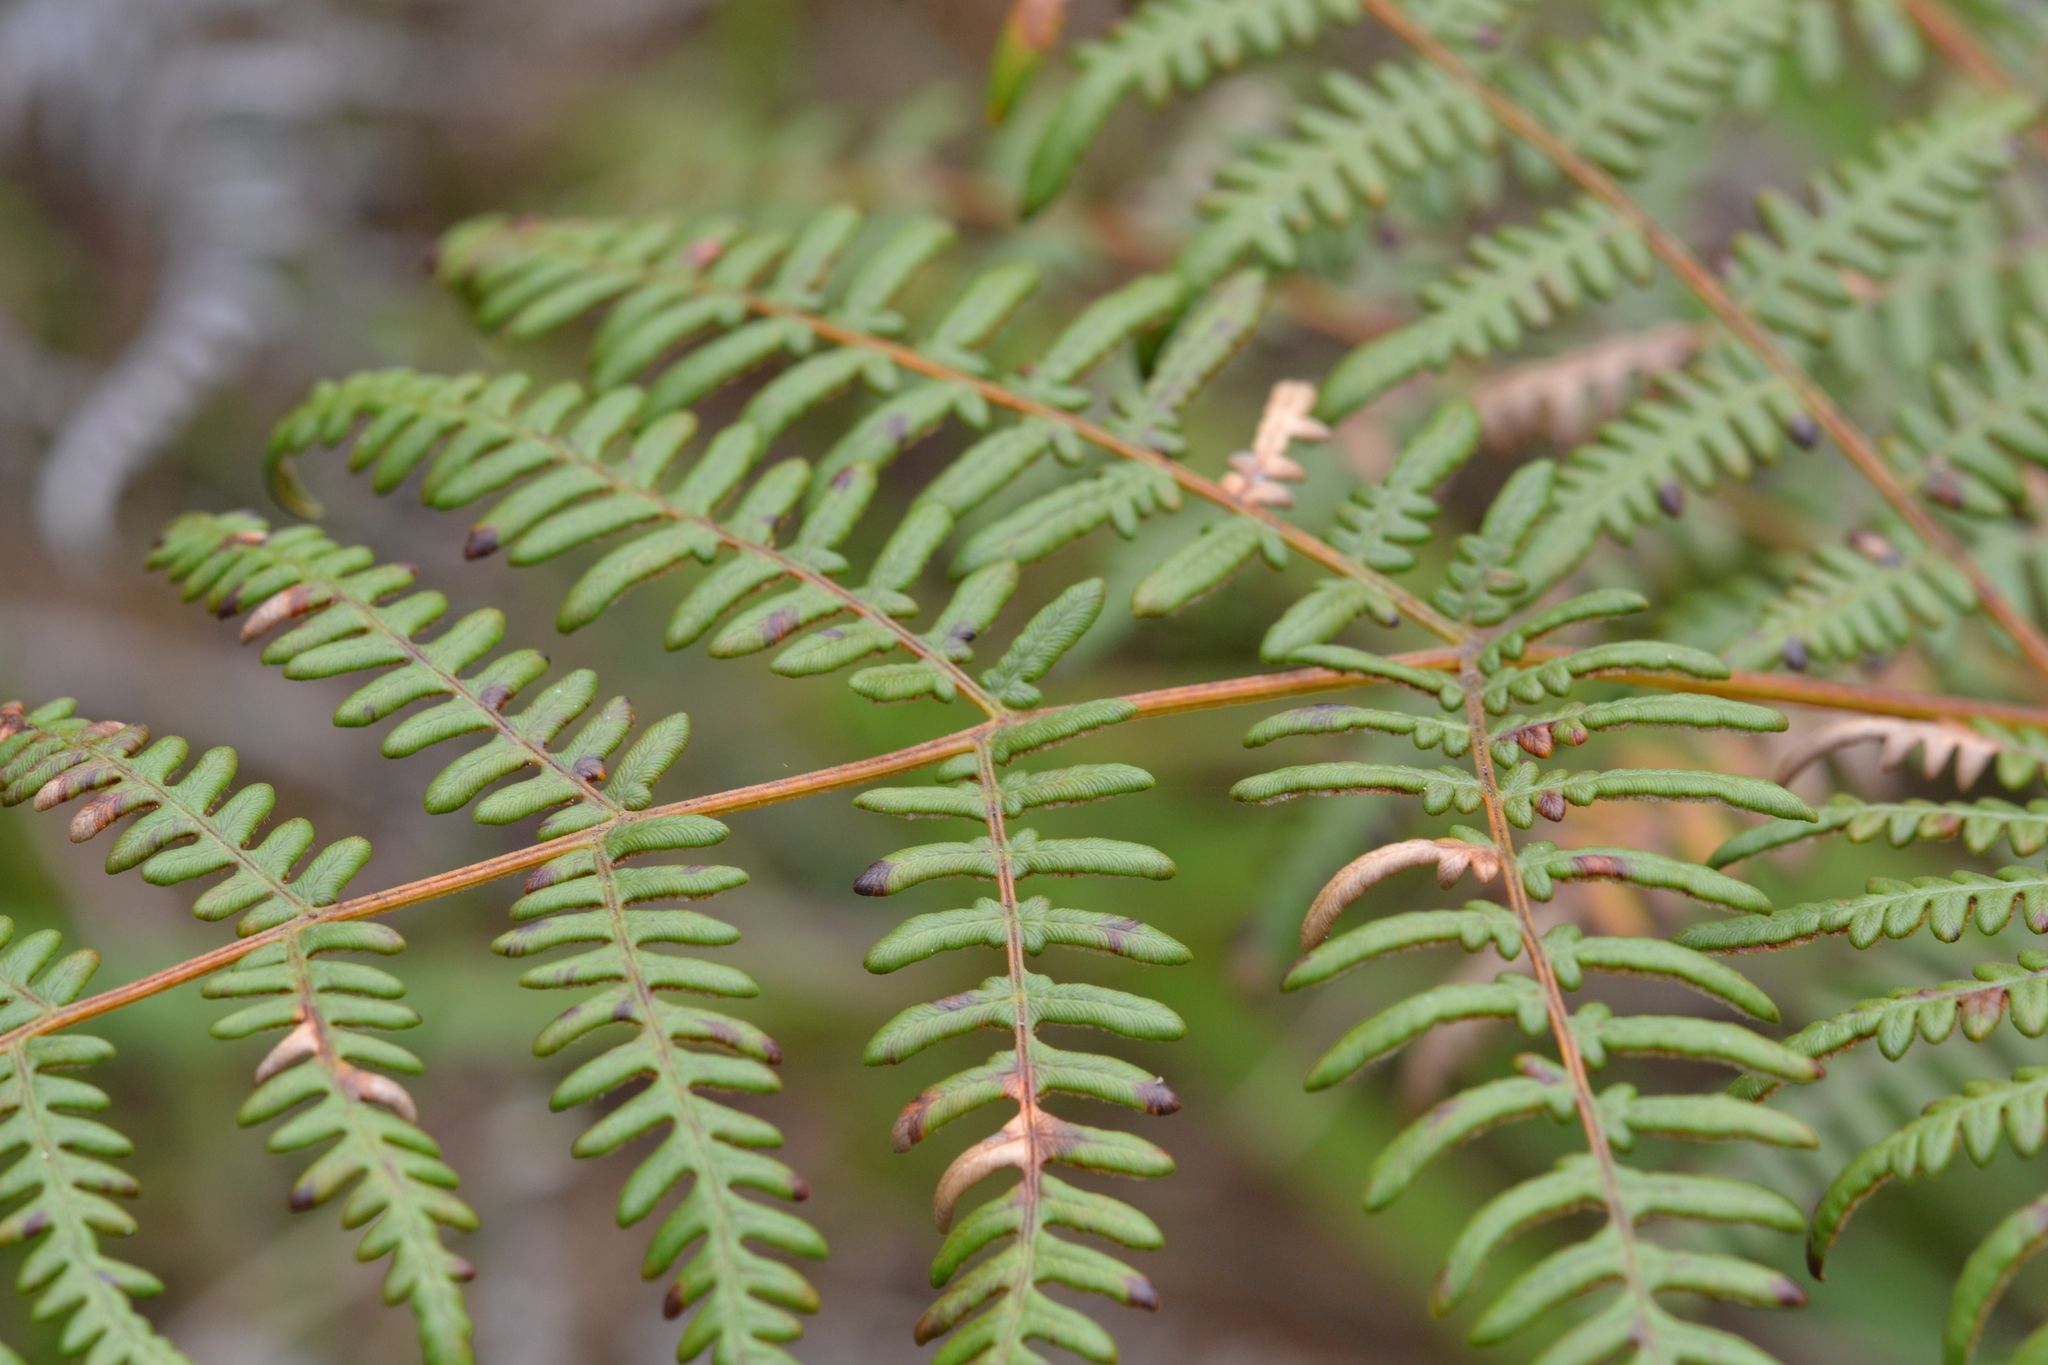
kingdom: Plantae
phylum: Tracheophyta
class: Polypodiopsida
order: Polypodiales
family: Dennstaedtiaceae
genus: Pteridium
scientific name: Pteridium aquilinum
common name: Bracken
